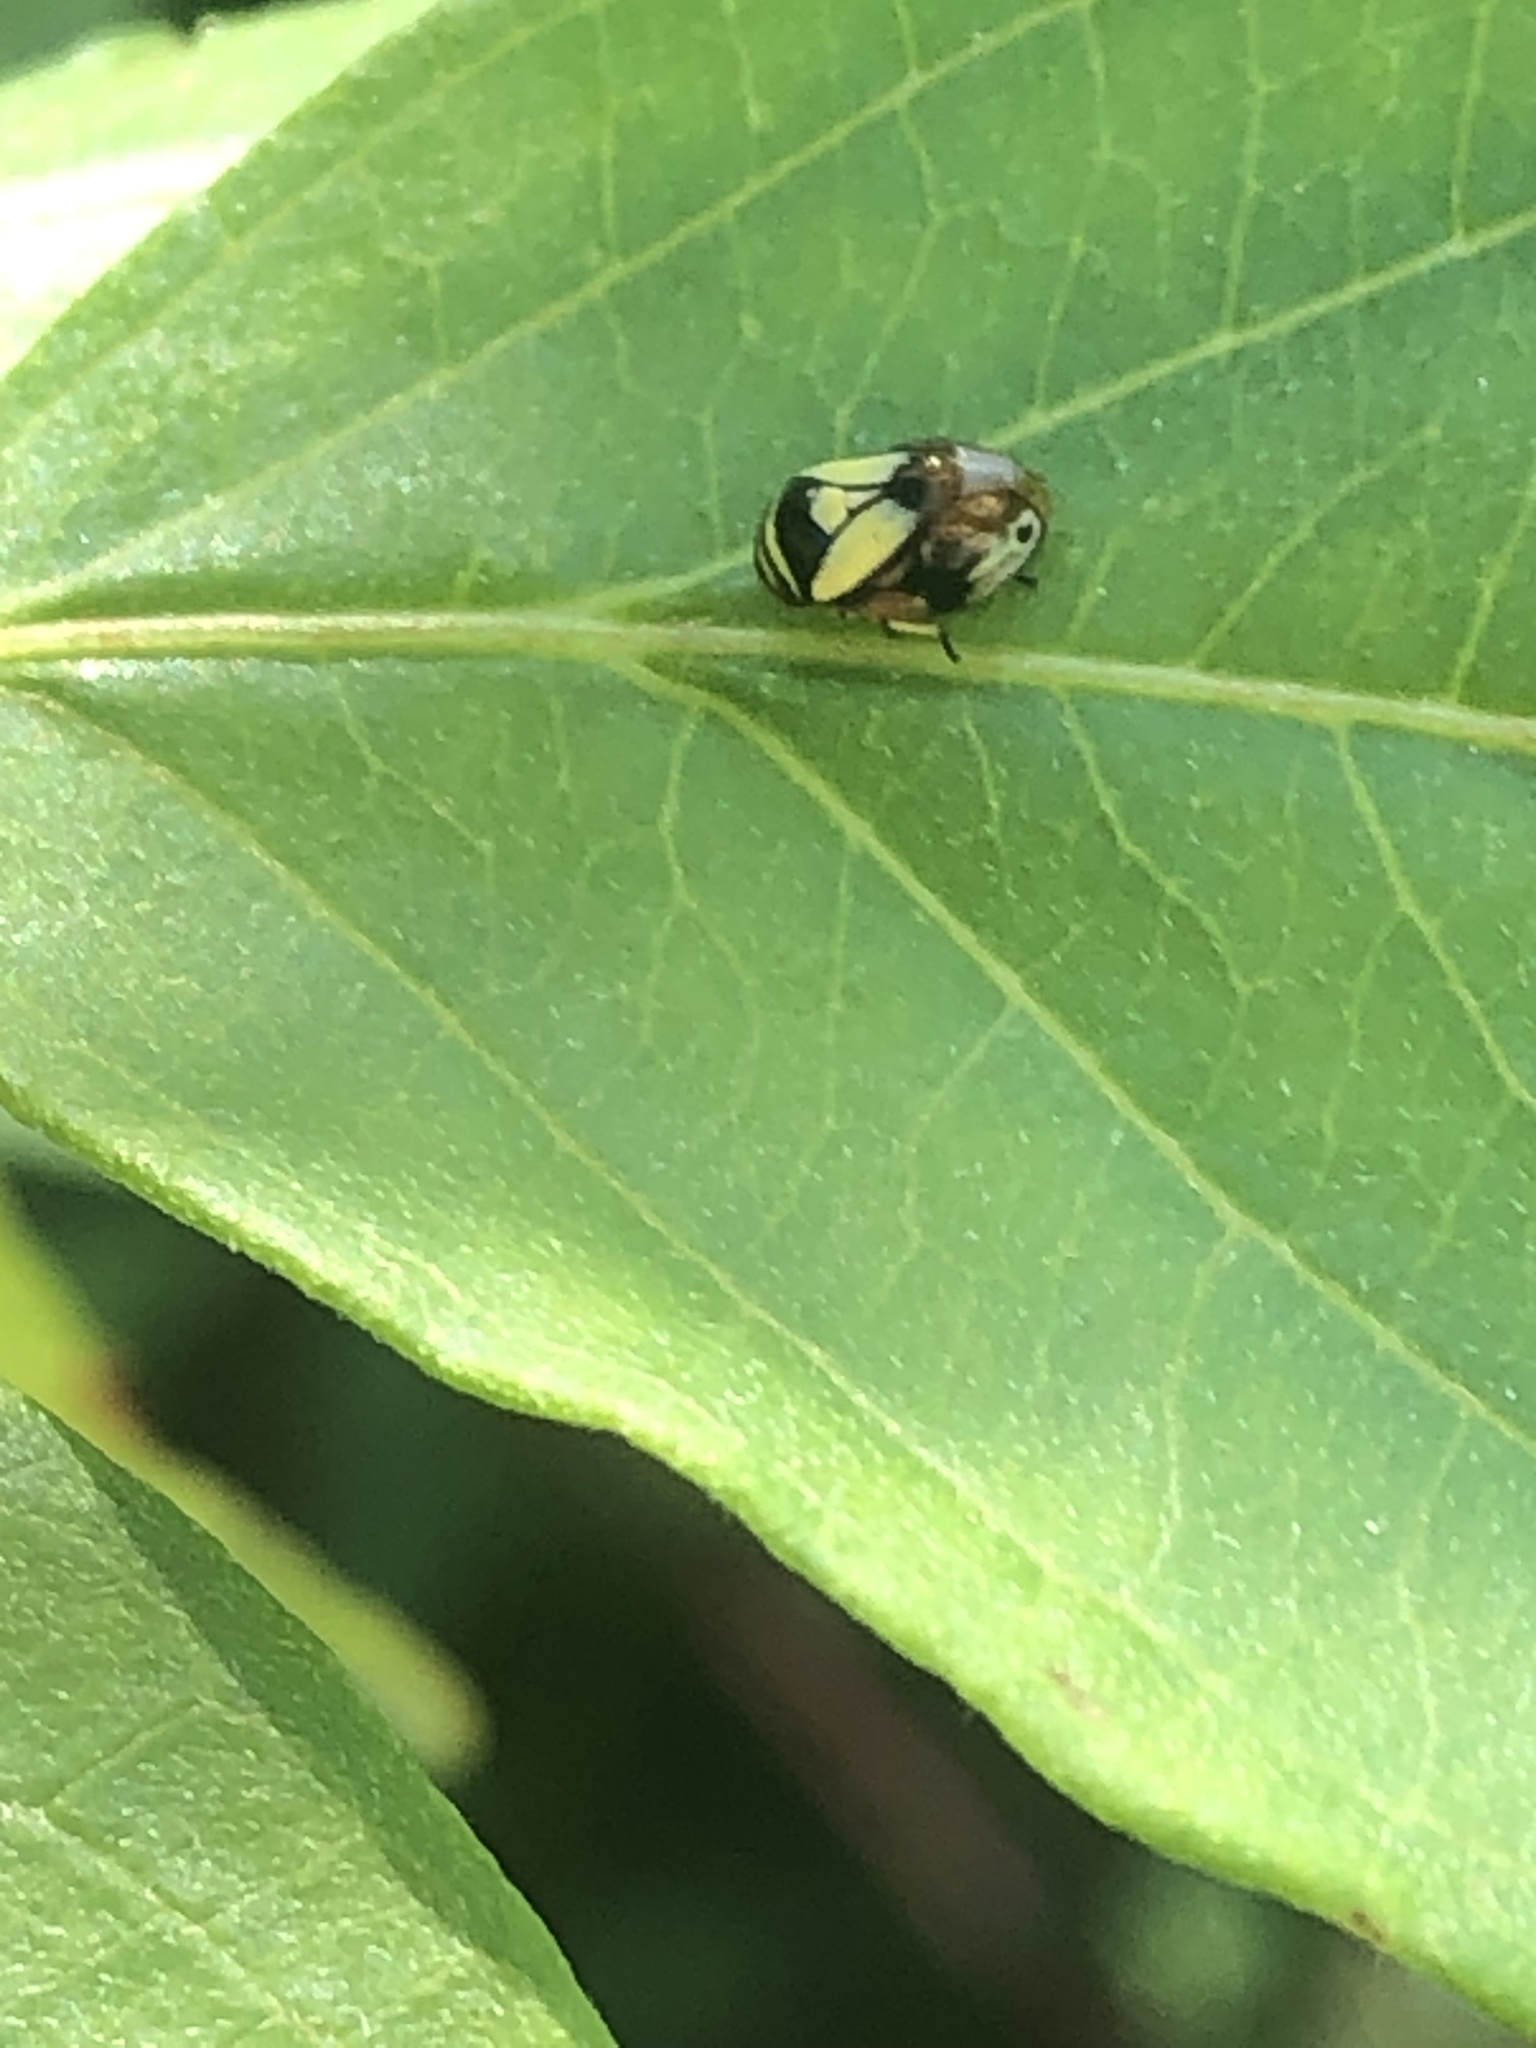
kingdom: Animalia
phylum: Arthropoda
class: Insecta
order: Hemiptera
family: Clastopteridae
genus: Clastoptera
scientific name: Clastoptera proteus
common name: Dogwood spittlebug
